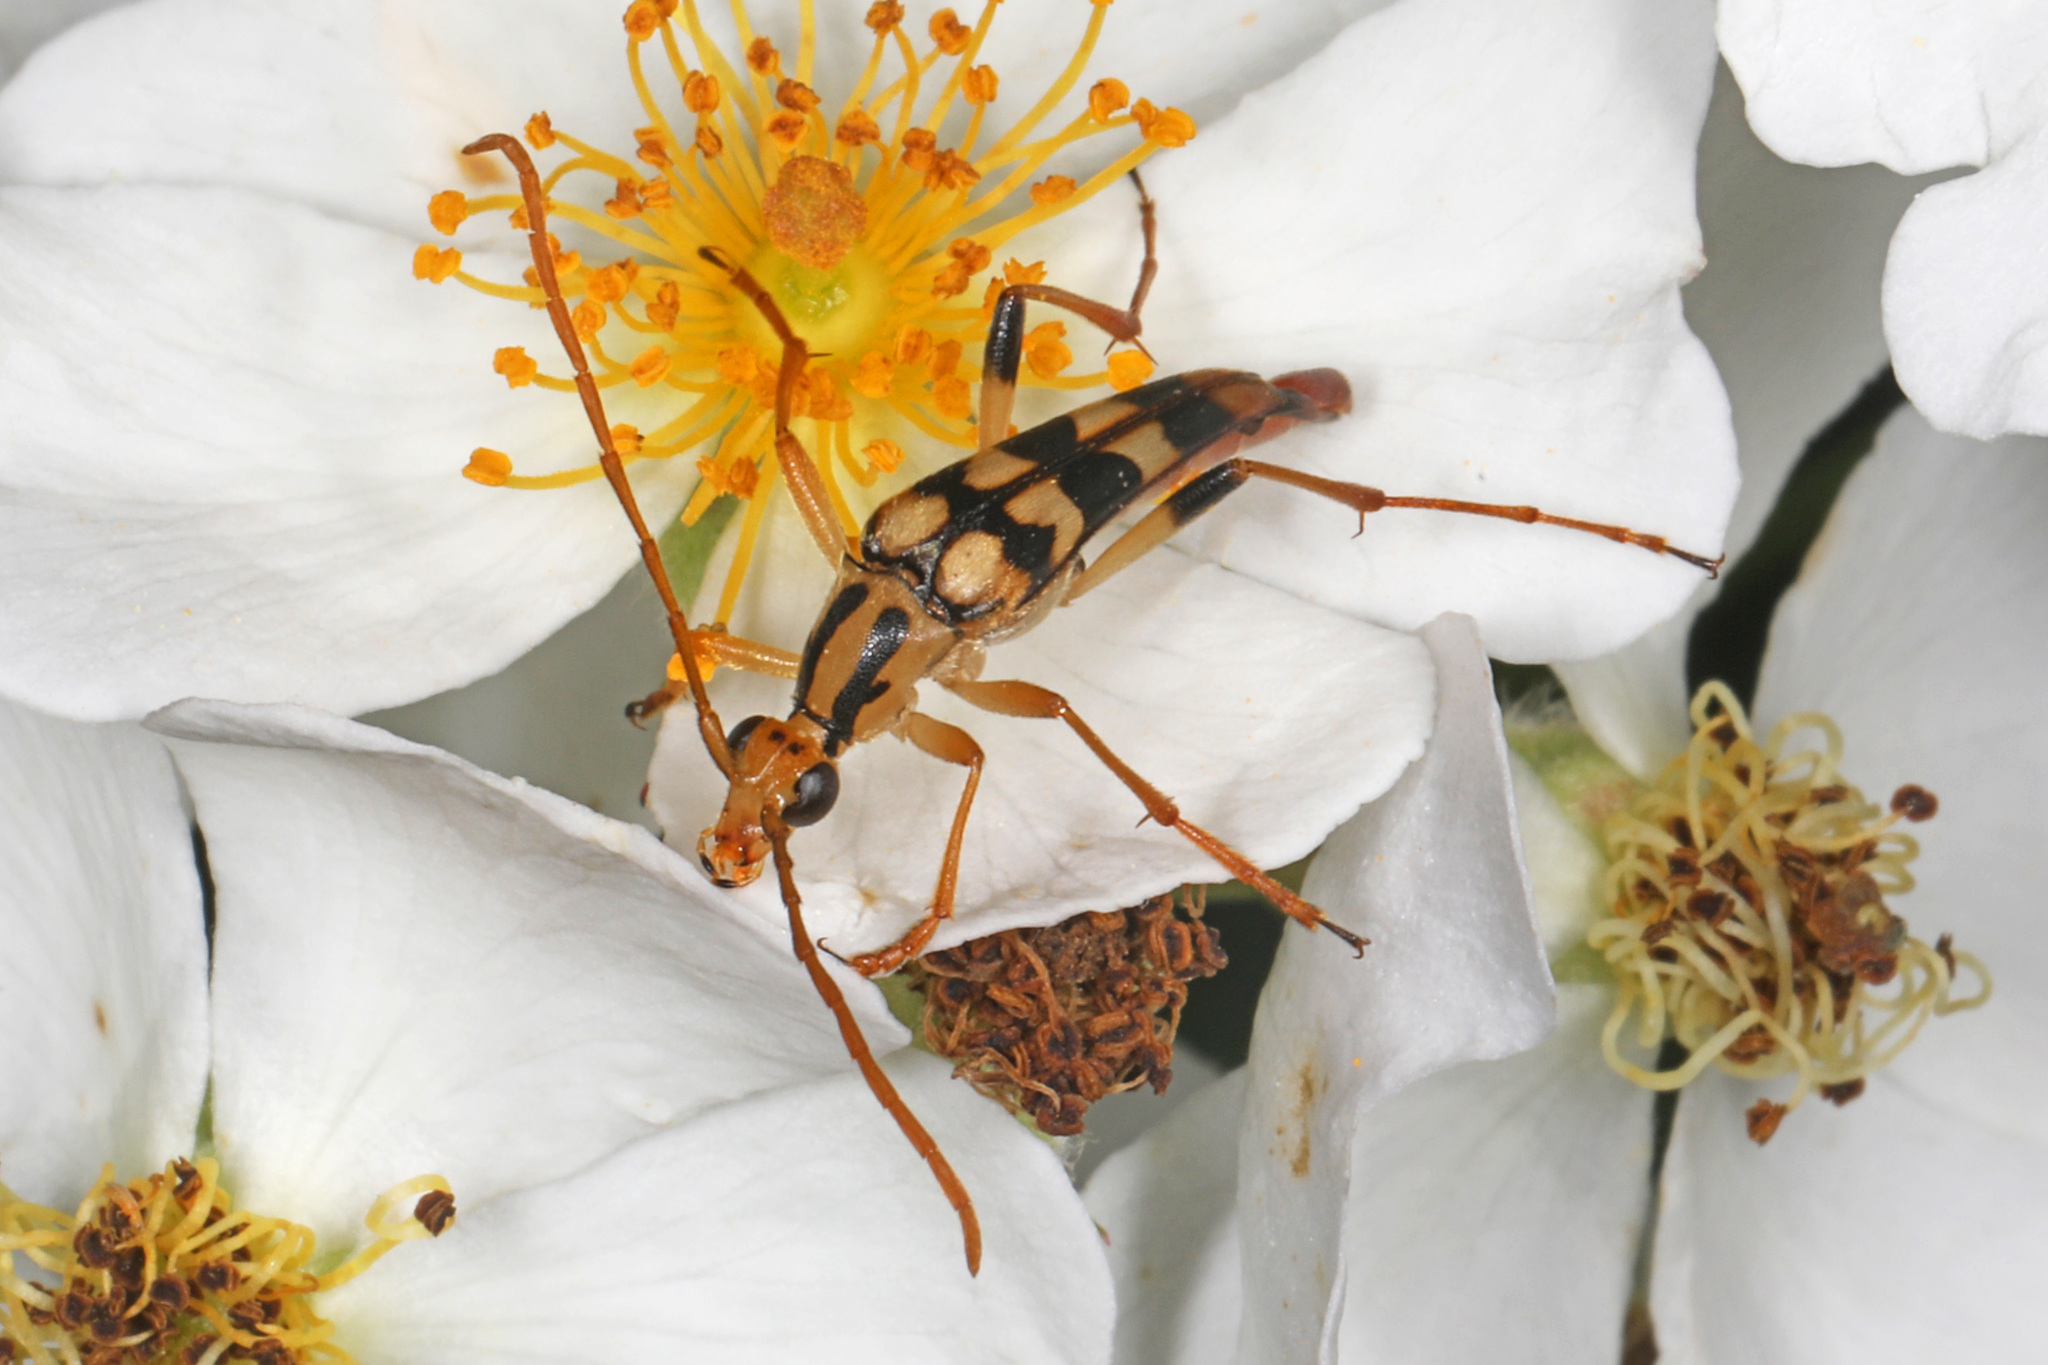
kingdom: Animalia
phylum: Arthropoda
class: Insecta
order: Coleoptera
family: Cerambycidae
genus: Strangalia
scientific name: Strangalia luteicornis
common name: Yellow-horned flower longhorn beetle
